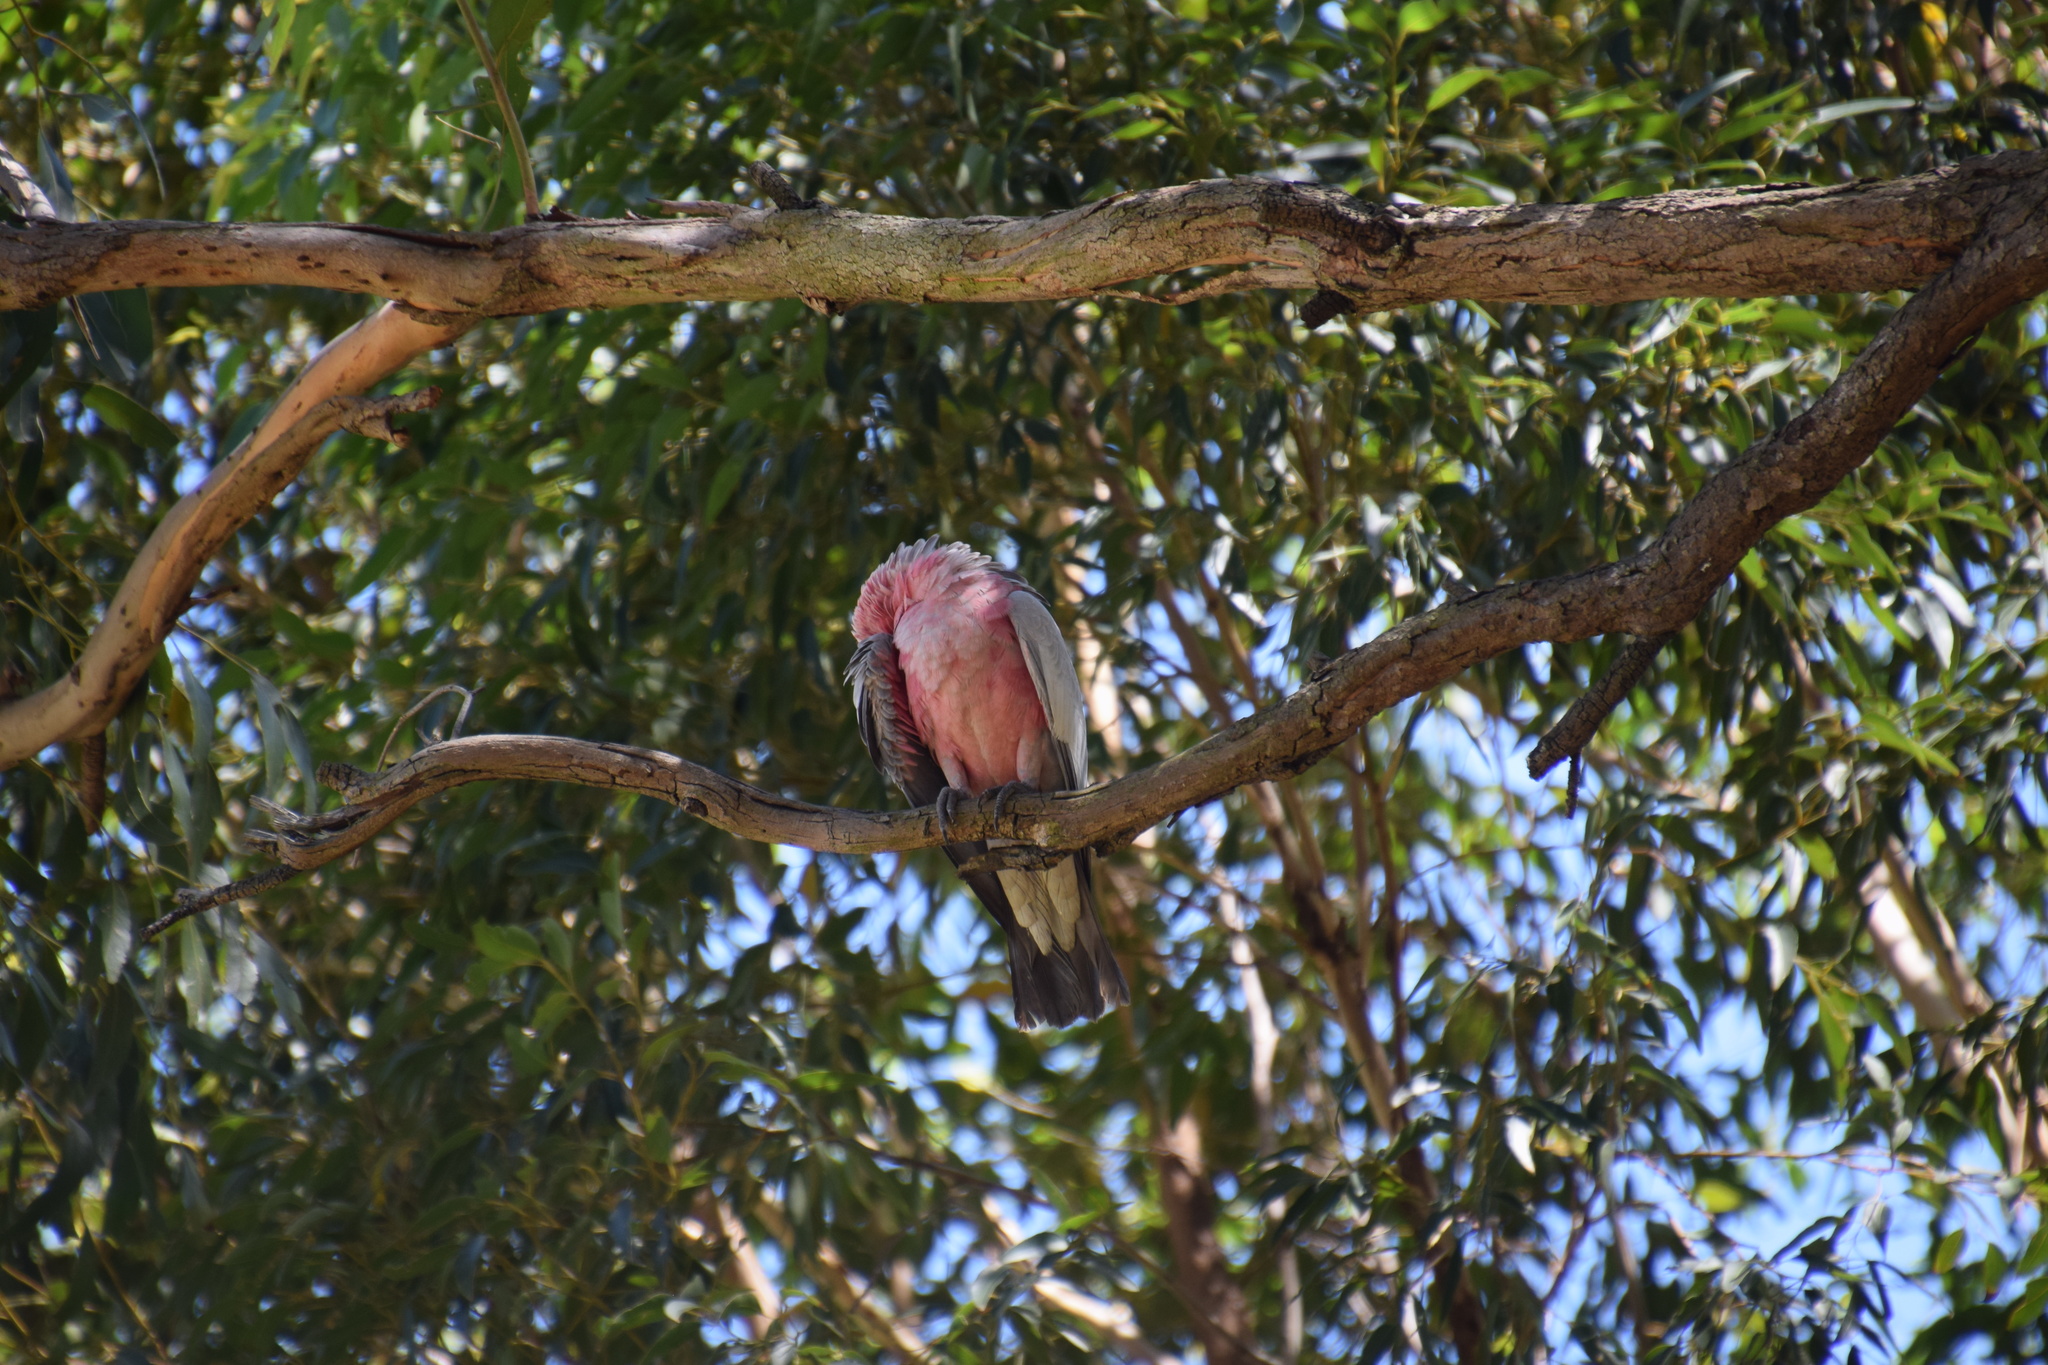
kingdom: Animalia
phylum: Chordata
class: Aves
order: Psittaciformes
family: Psittacidae
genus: Eolophus
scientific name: Eolophus roseicapilla
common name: Galah
